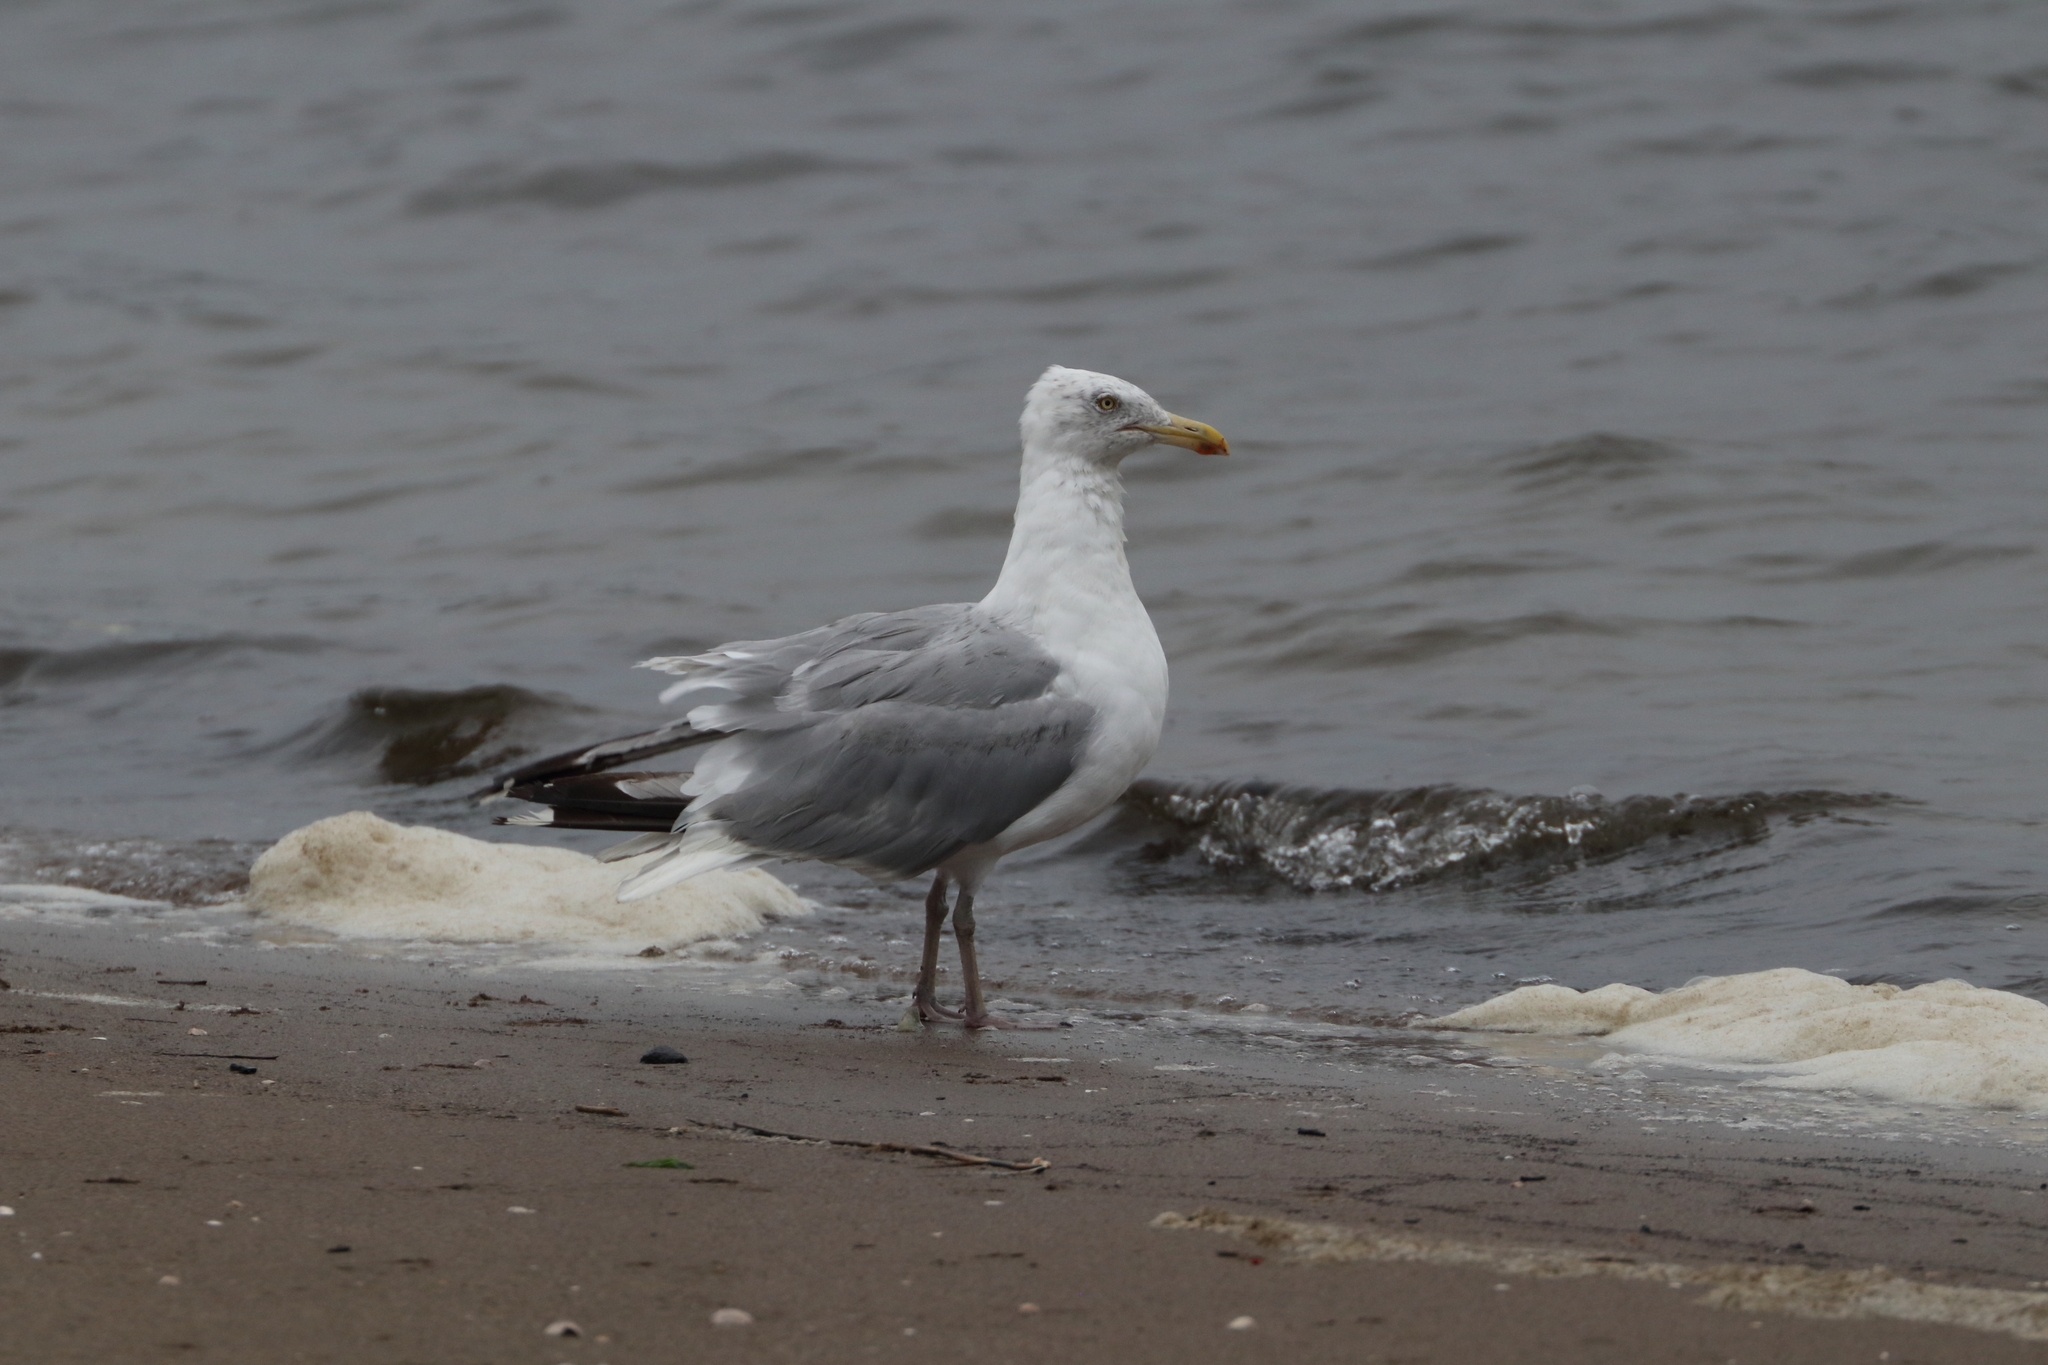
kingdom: Animalia
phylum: Chordata
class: Aves
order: Charadriiformes
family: Laridae
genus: Larus
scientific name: Larus argentatus
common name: Herring gull
